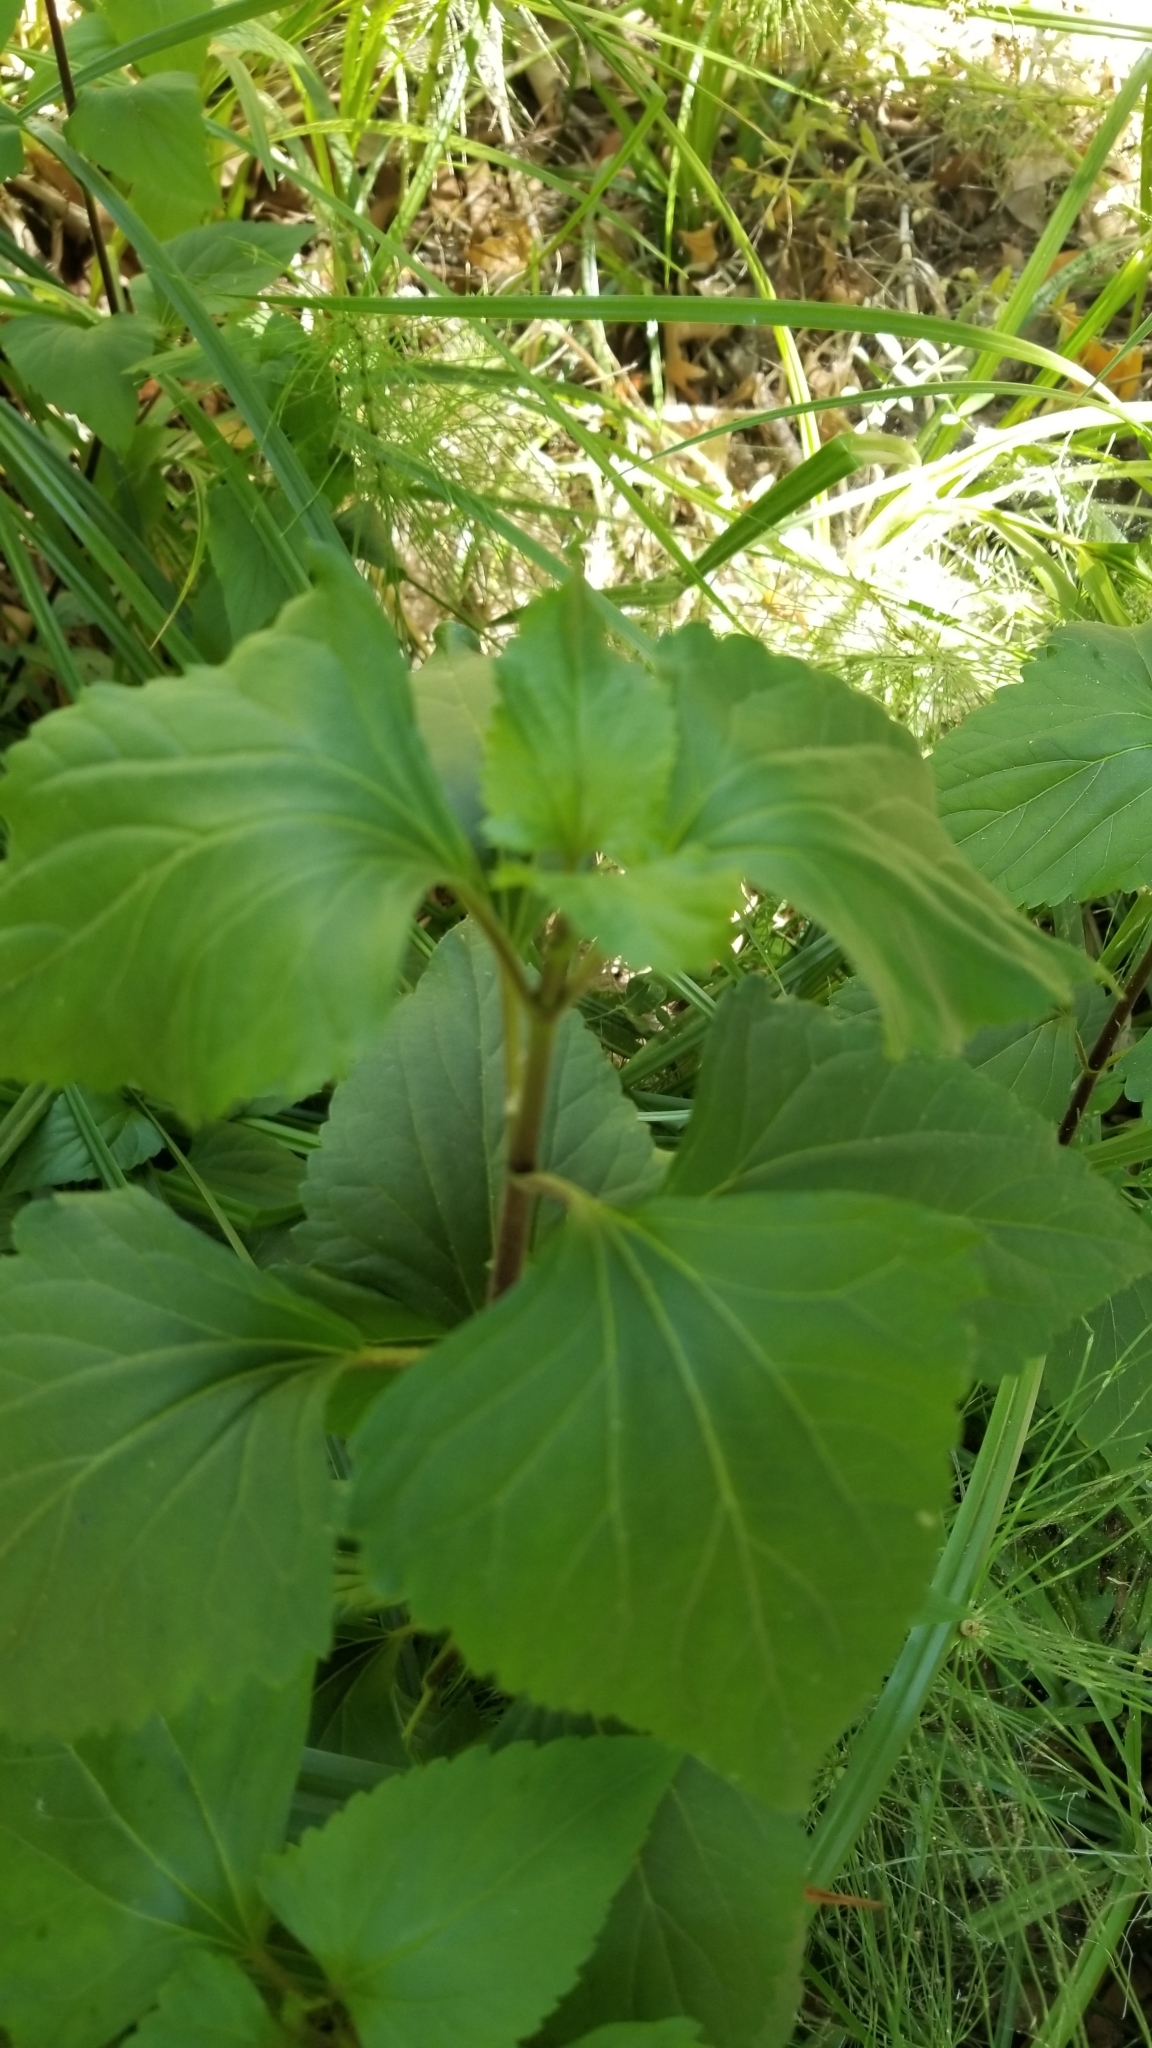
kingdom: Plantae
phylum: Tracheophyta
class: Magnoliopsida
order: Asterales
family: Asteraceae
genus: Ageratina
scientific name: Ageratina adenophora
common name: Sticky snakeroot
